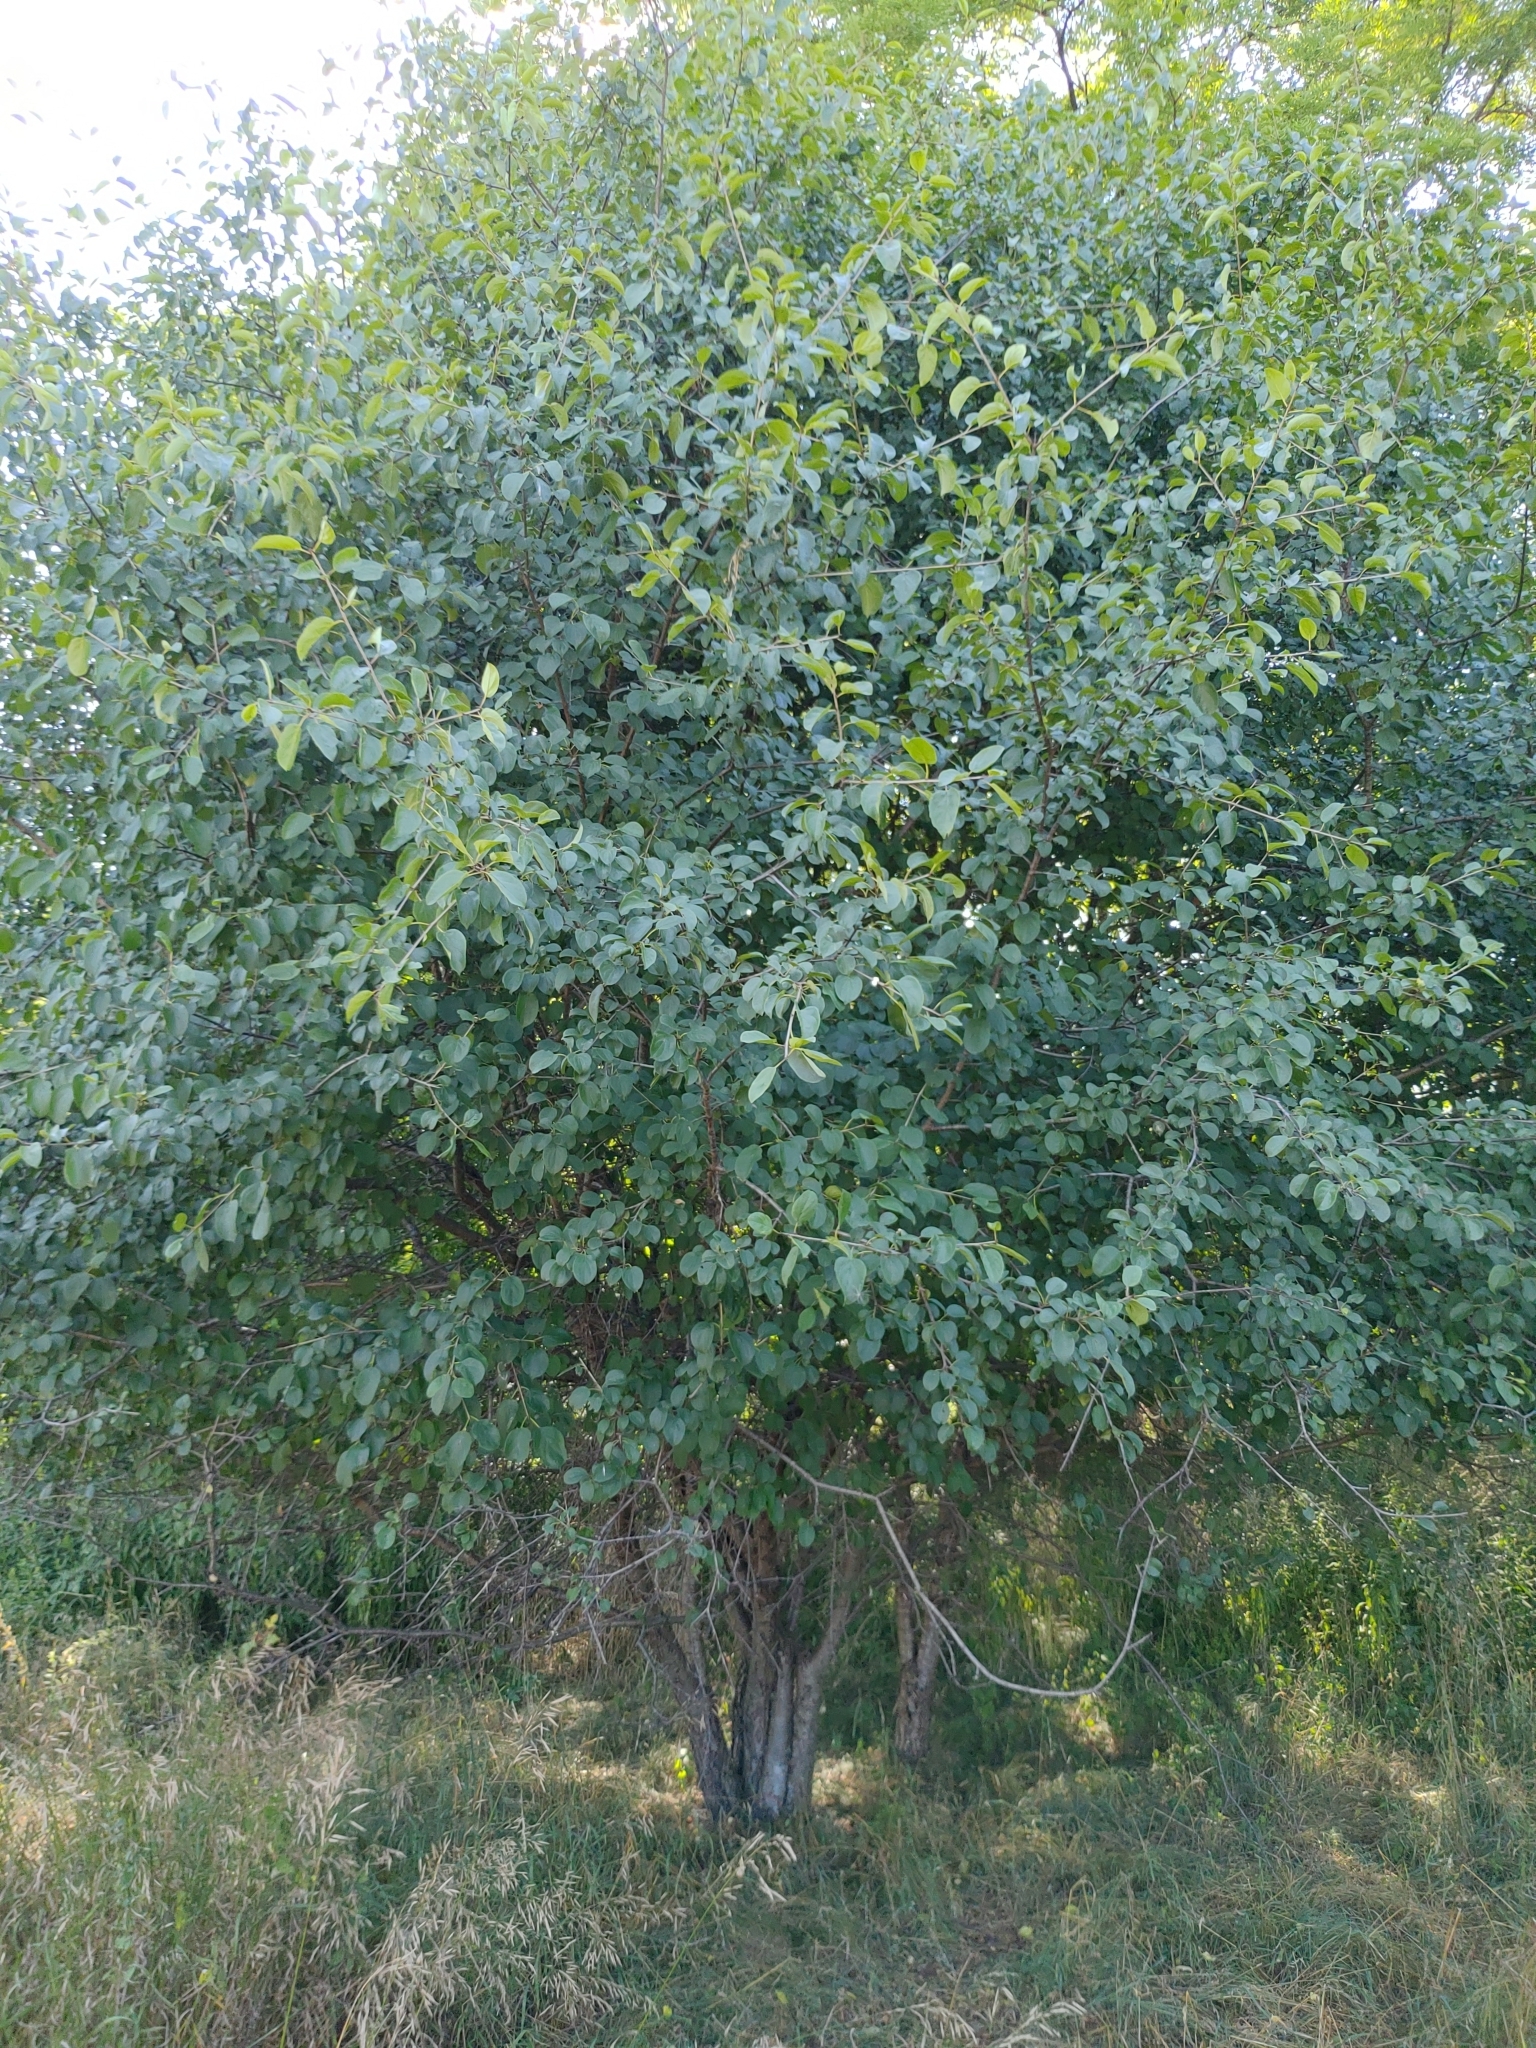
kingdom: Plantae
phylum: Tracheophyta
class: Magnoliopsida
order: Rosales
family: Rhamnaceae
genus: Rhamnus
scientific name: Rhamnus cathartica
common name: Common buckthorn
